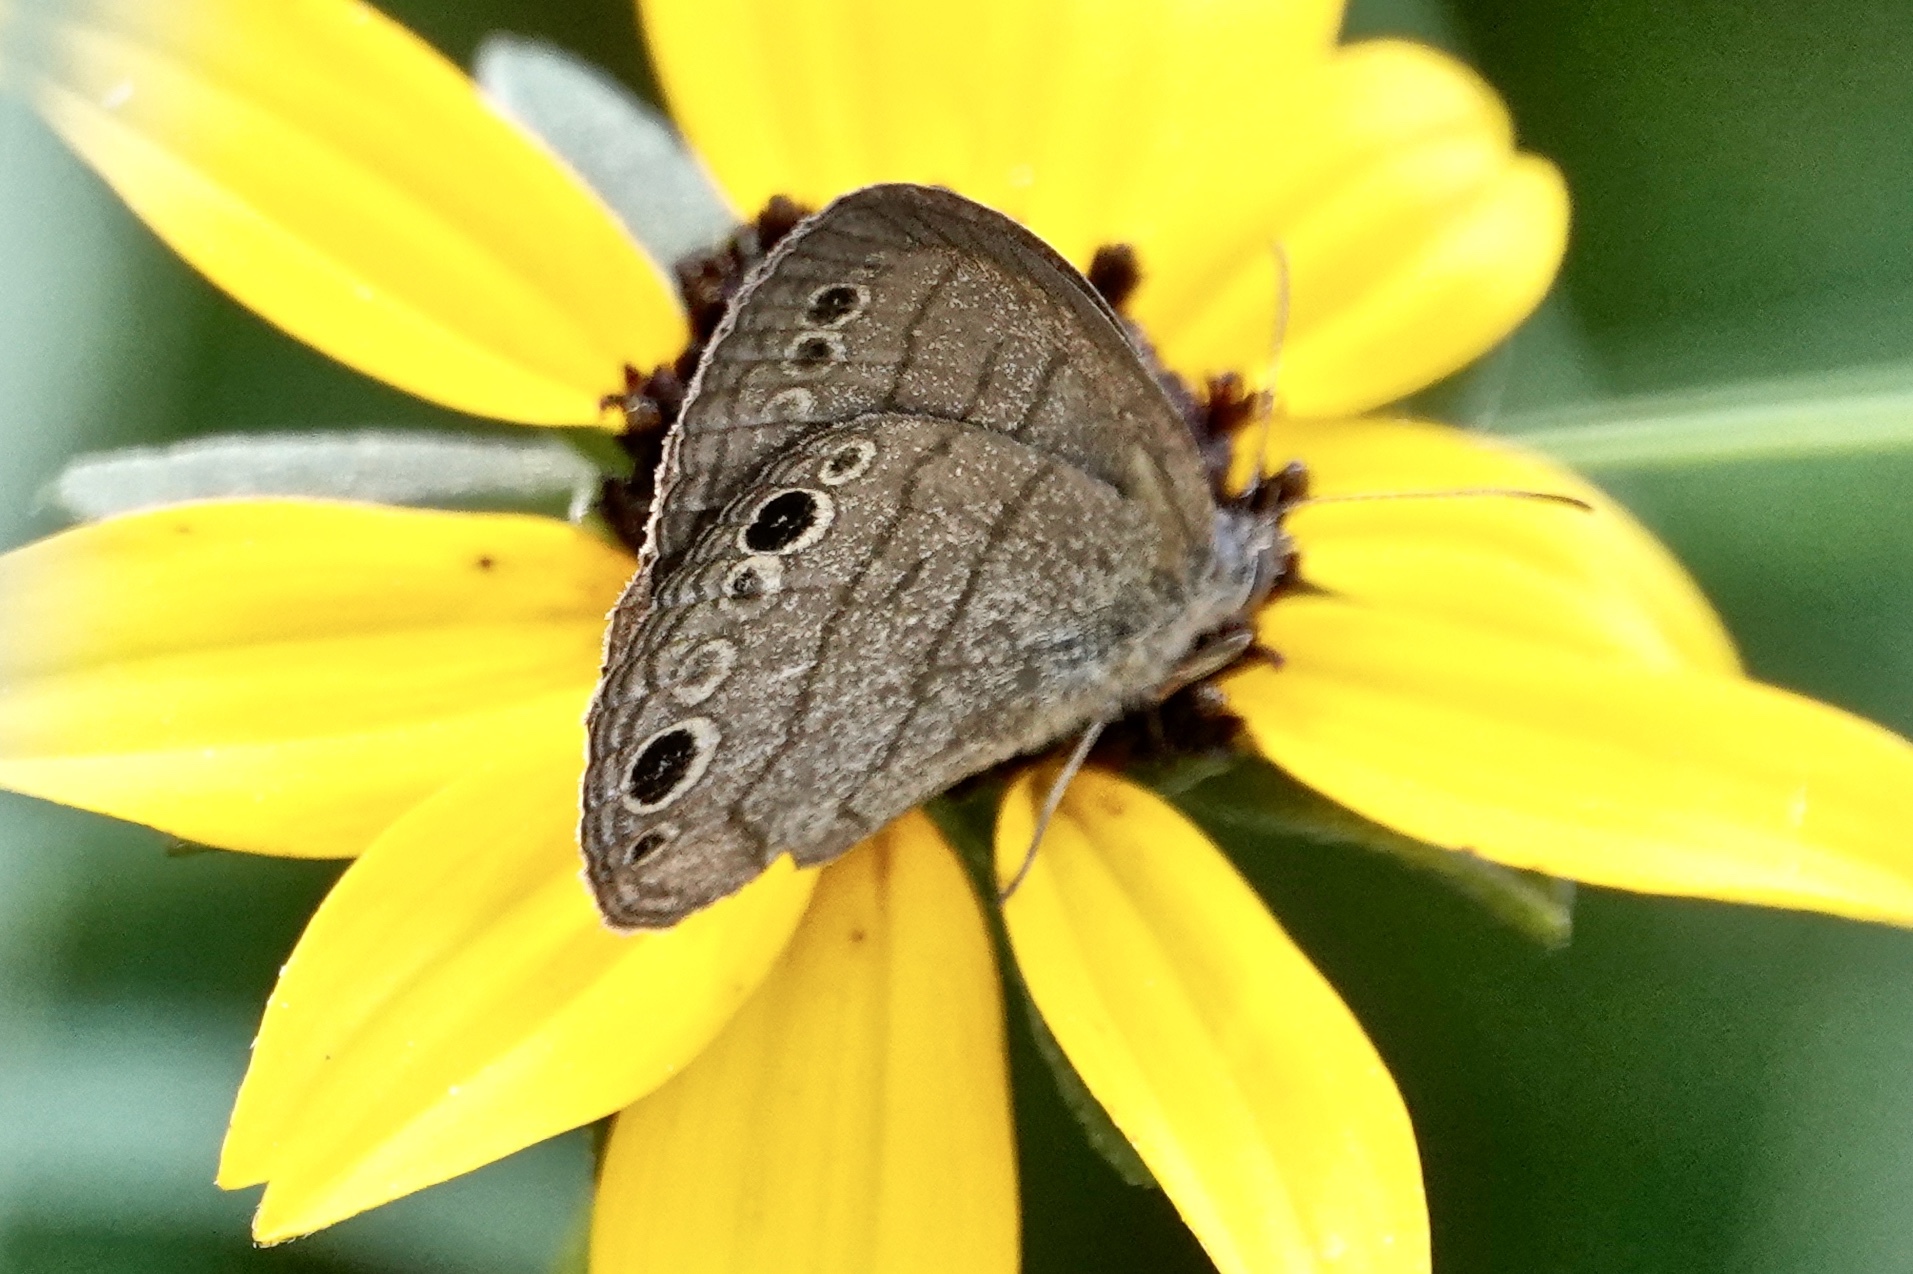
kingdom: Animalia
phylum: Arthropoda
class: Insecta
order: Lepidoptera
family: Nymphalidae
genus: Hermeuptychia
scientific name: Hermeuptychia hermes
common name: Hermes satyr
